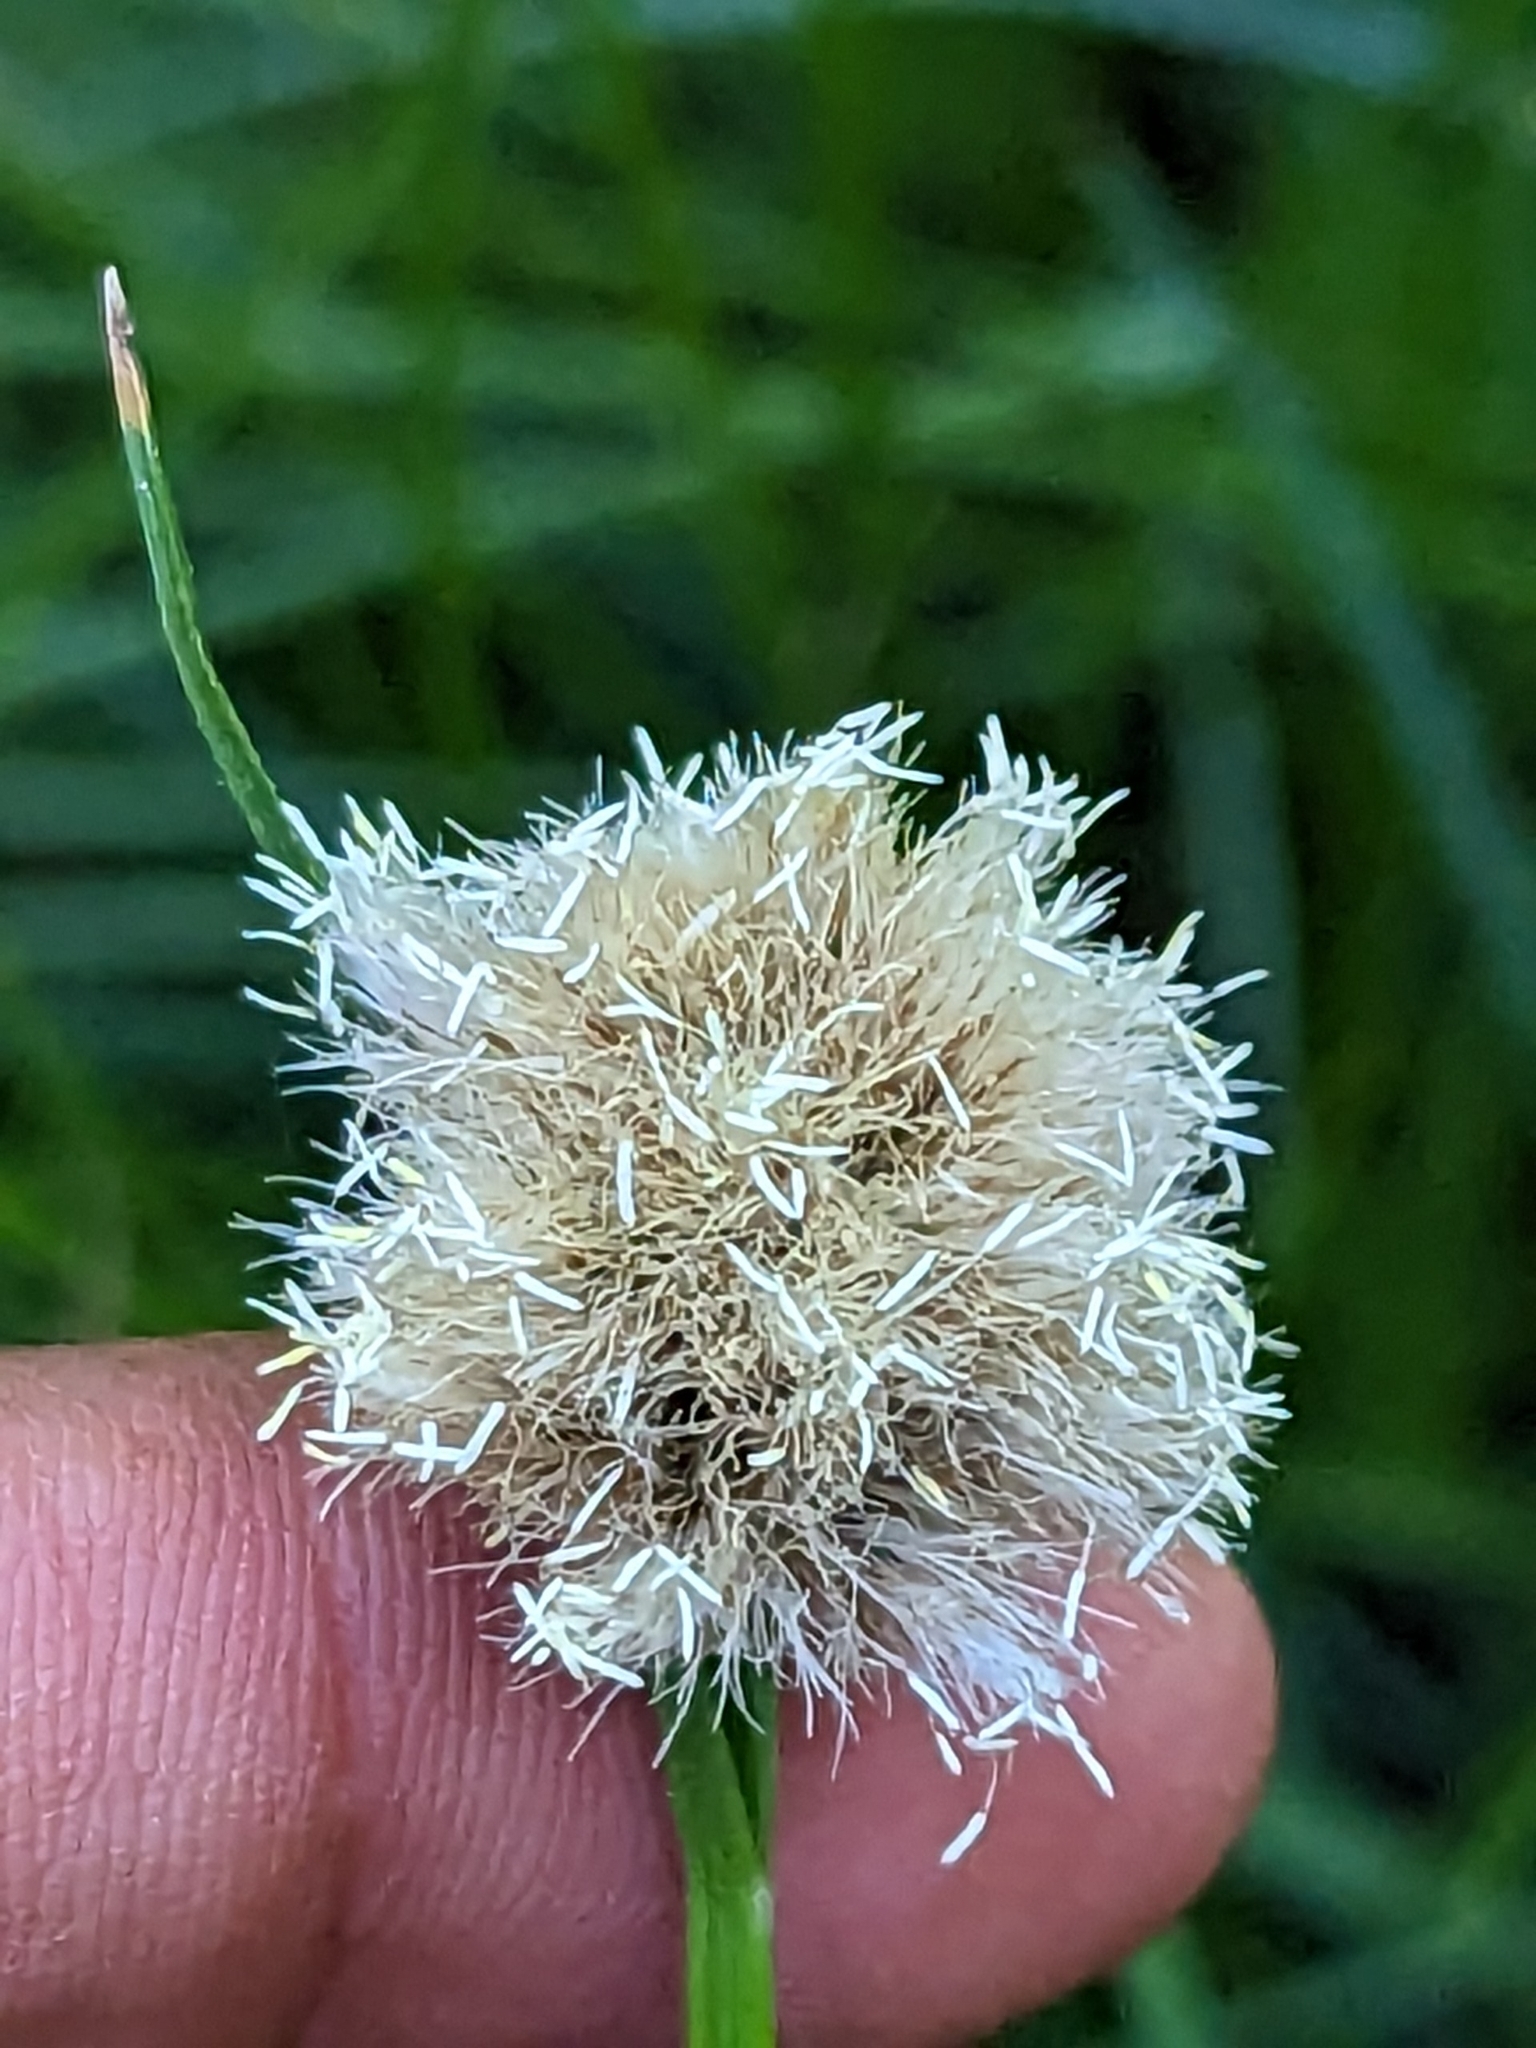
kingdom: Plantae
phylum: Tracheophyta
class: Liliopsida
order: Poales
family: Cyperaceae
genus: Calliscirpus
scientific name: Calliscirpus criniger
